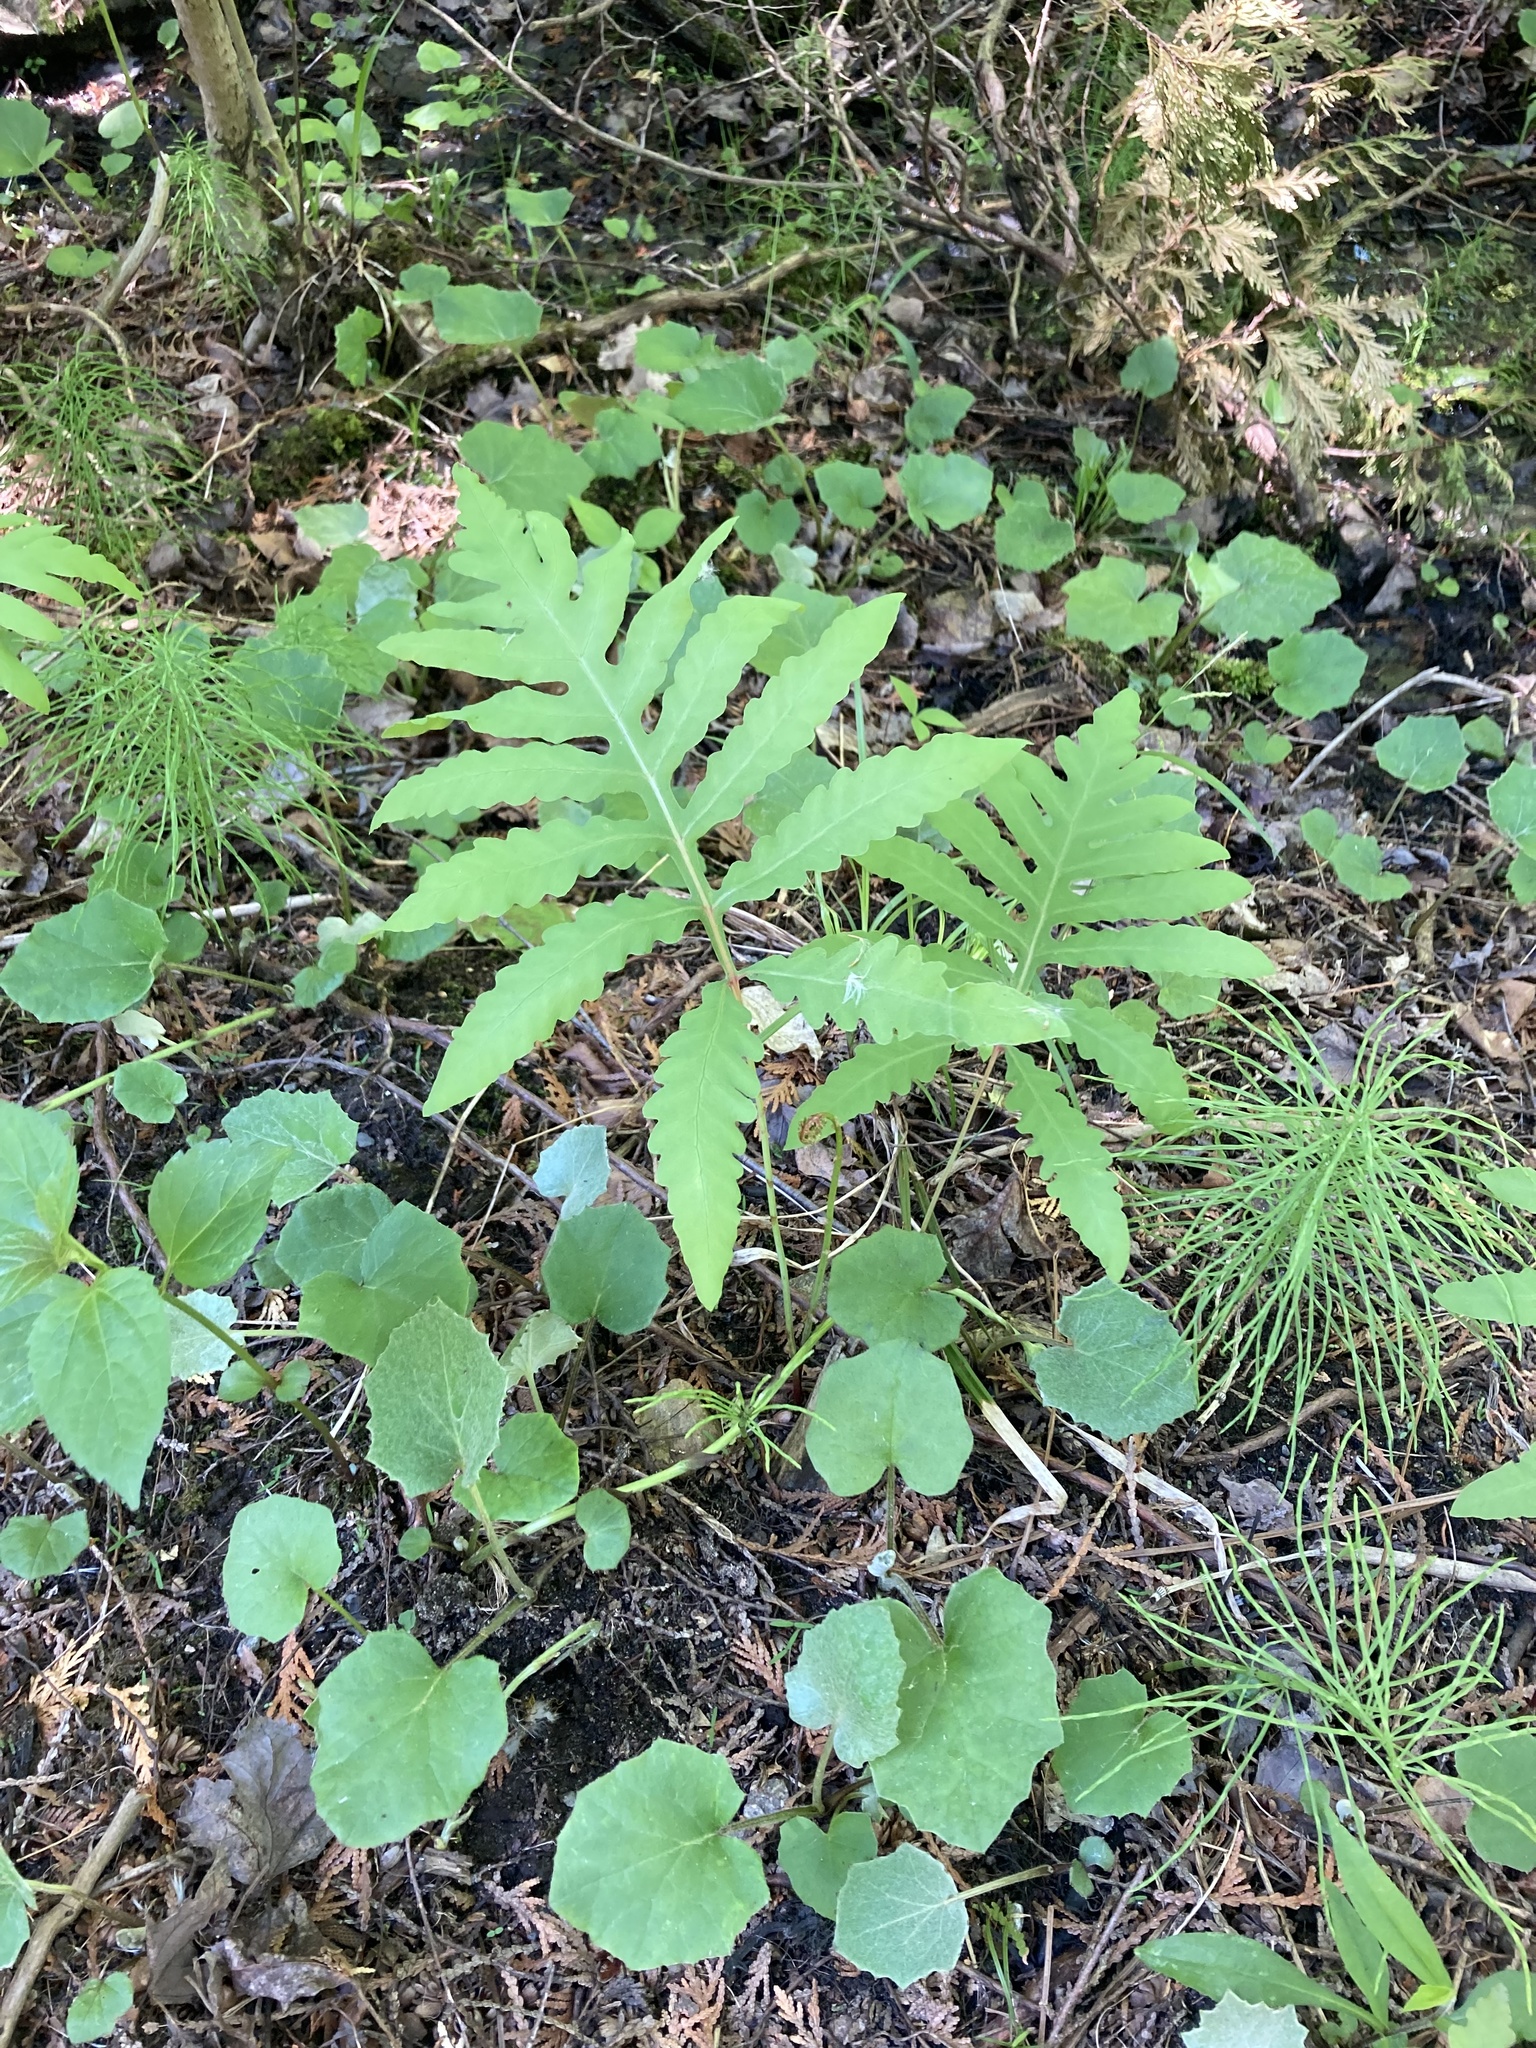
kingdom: Plantae
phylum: Tracheophyta
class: Polypodiopsida
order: Polypodiales
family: Onocleaceae
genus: Onoclea
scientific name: Onoclea sensibilis
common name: Sensitive fern
